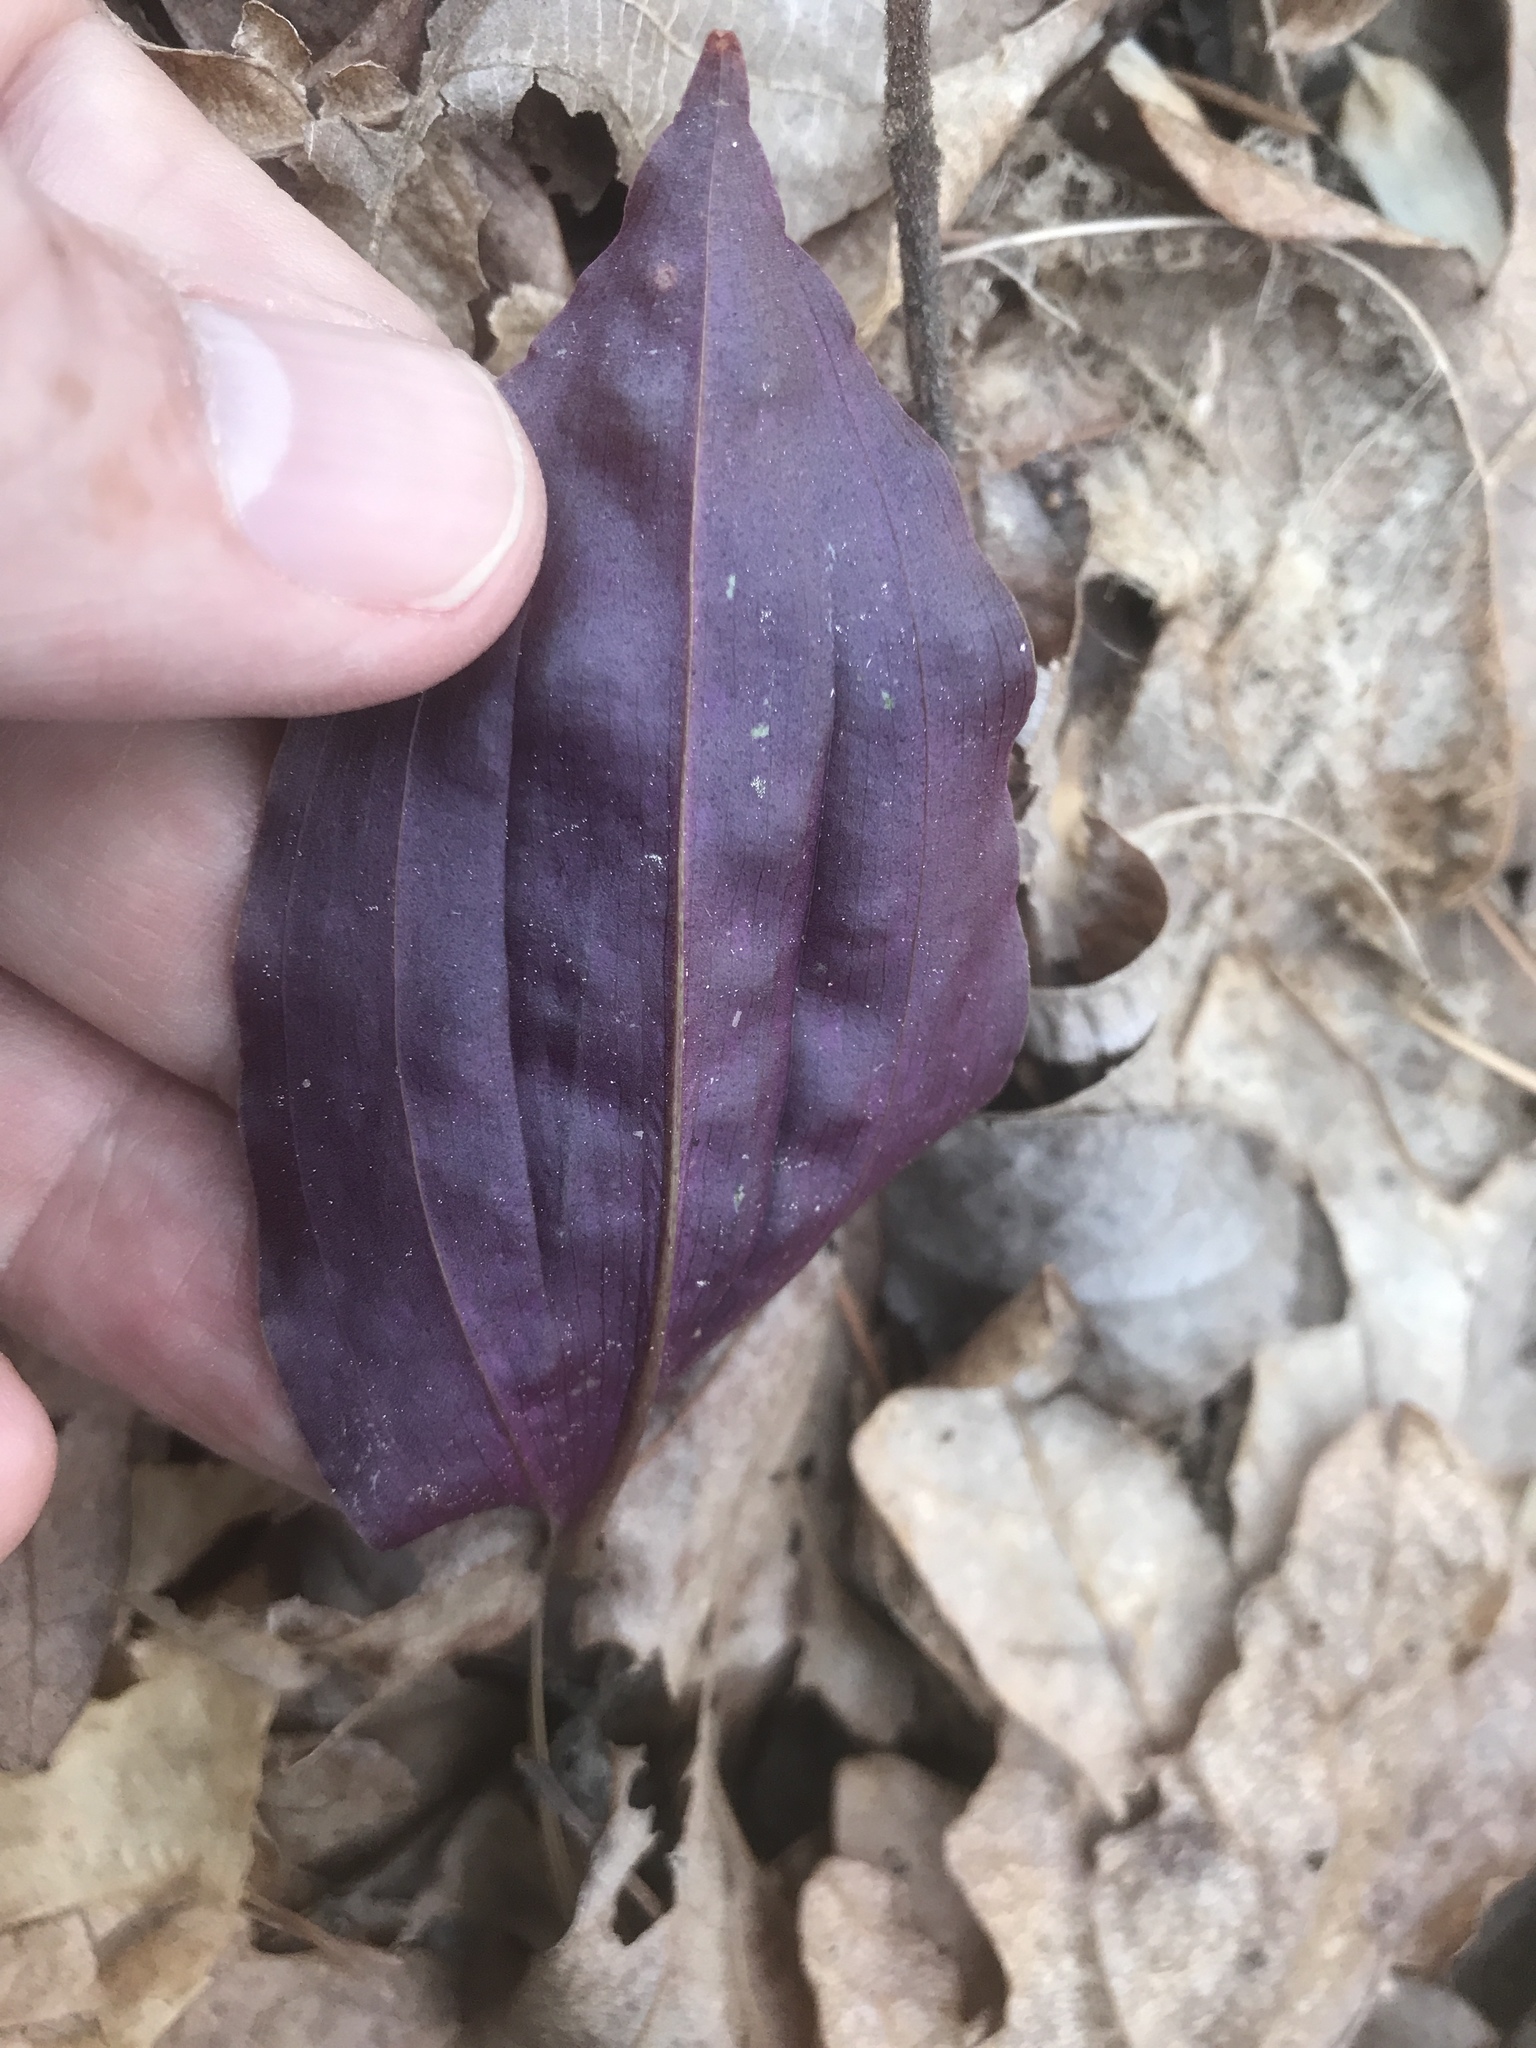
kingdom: Plantae
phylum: Tracheophyta
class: Liliopsida
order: Asparagales
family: Orchidaceae
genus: Tipularia
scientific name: Tipularia discolor
